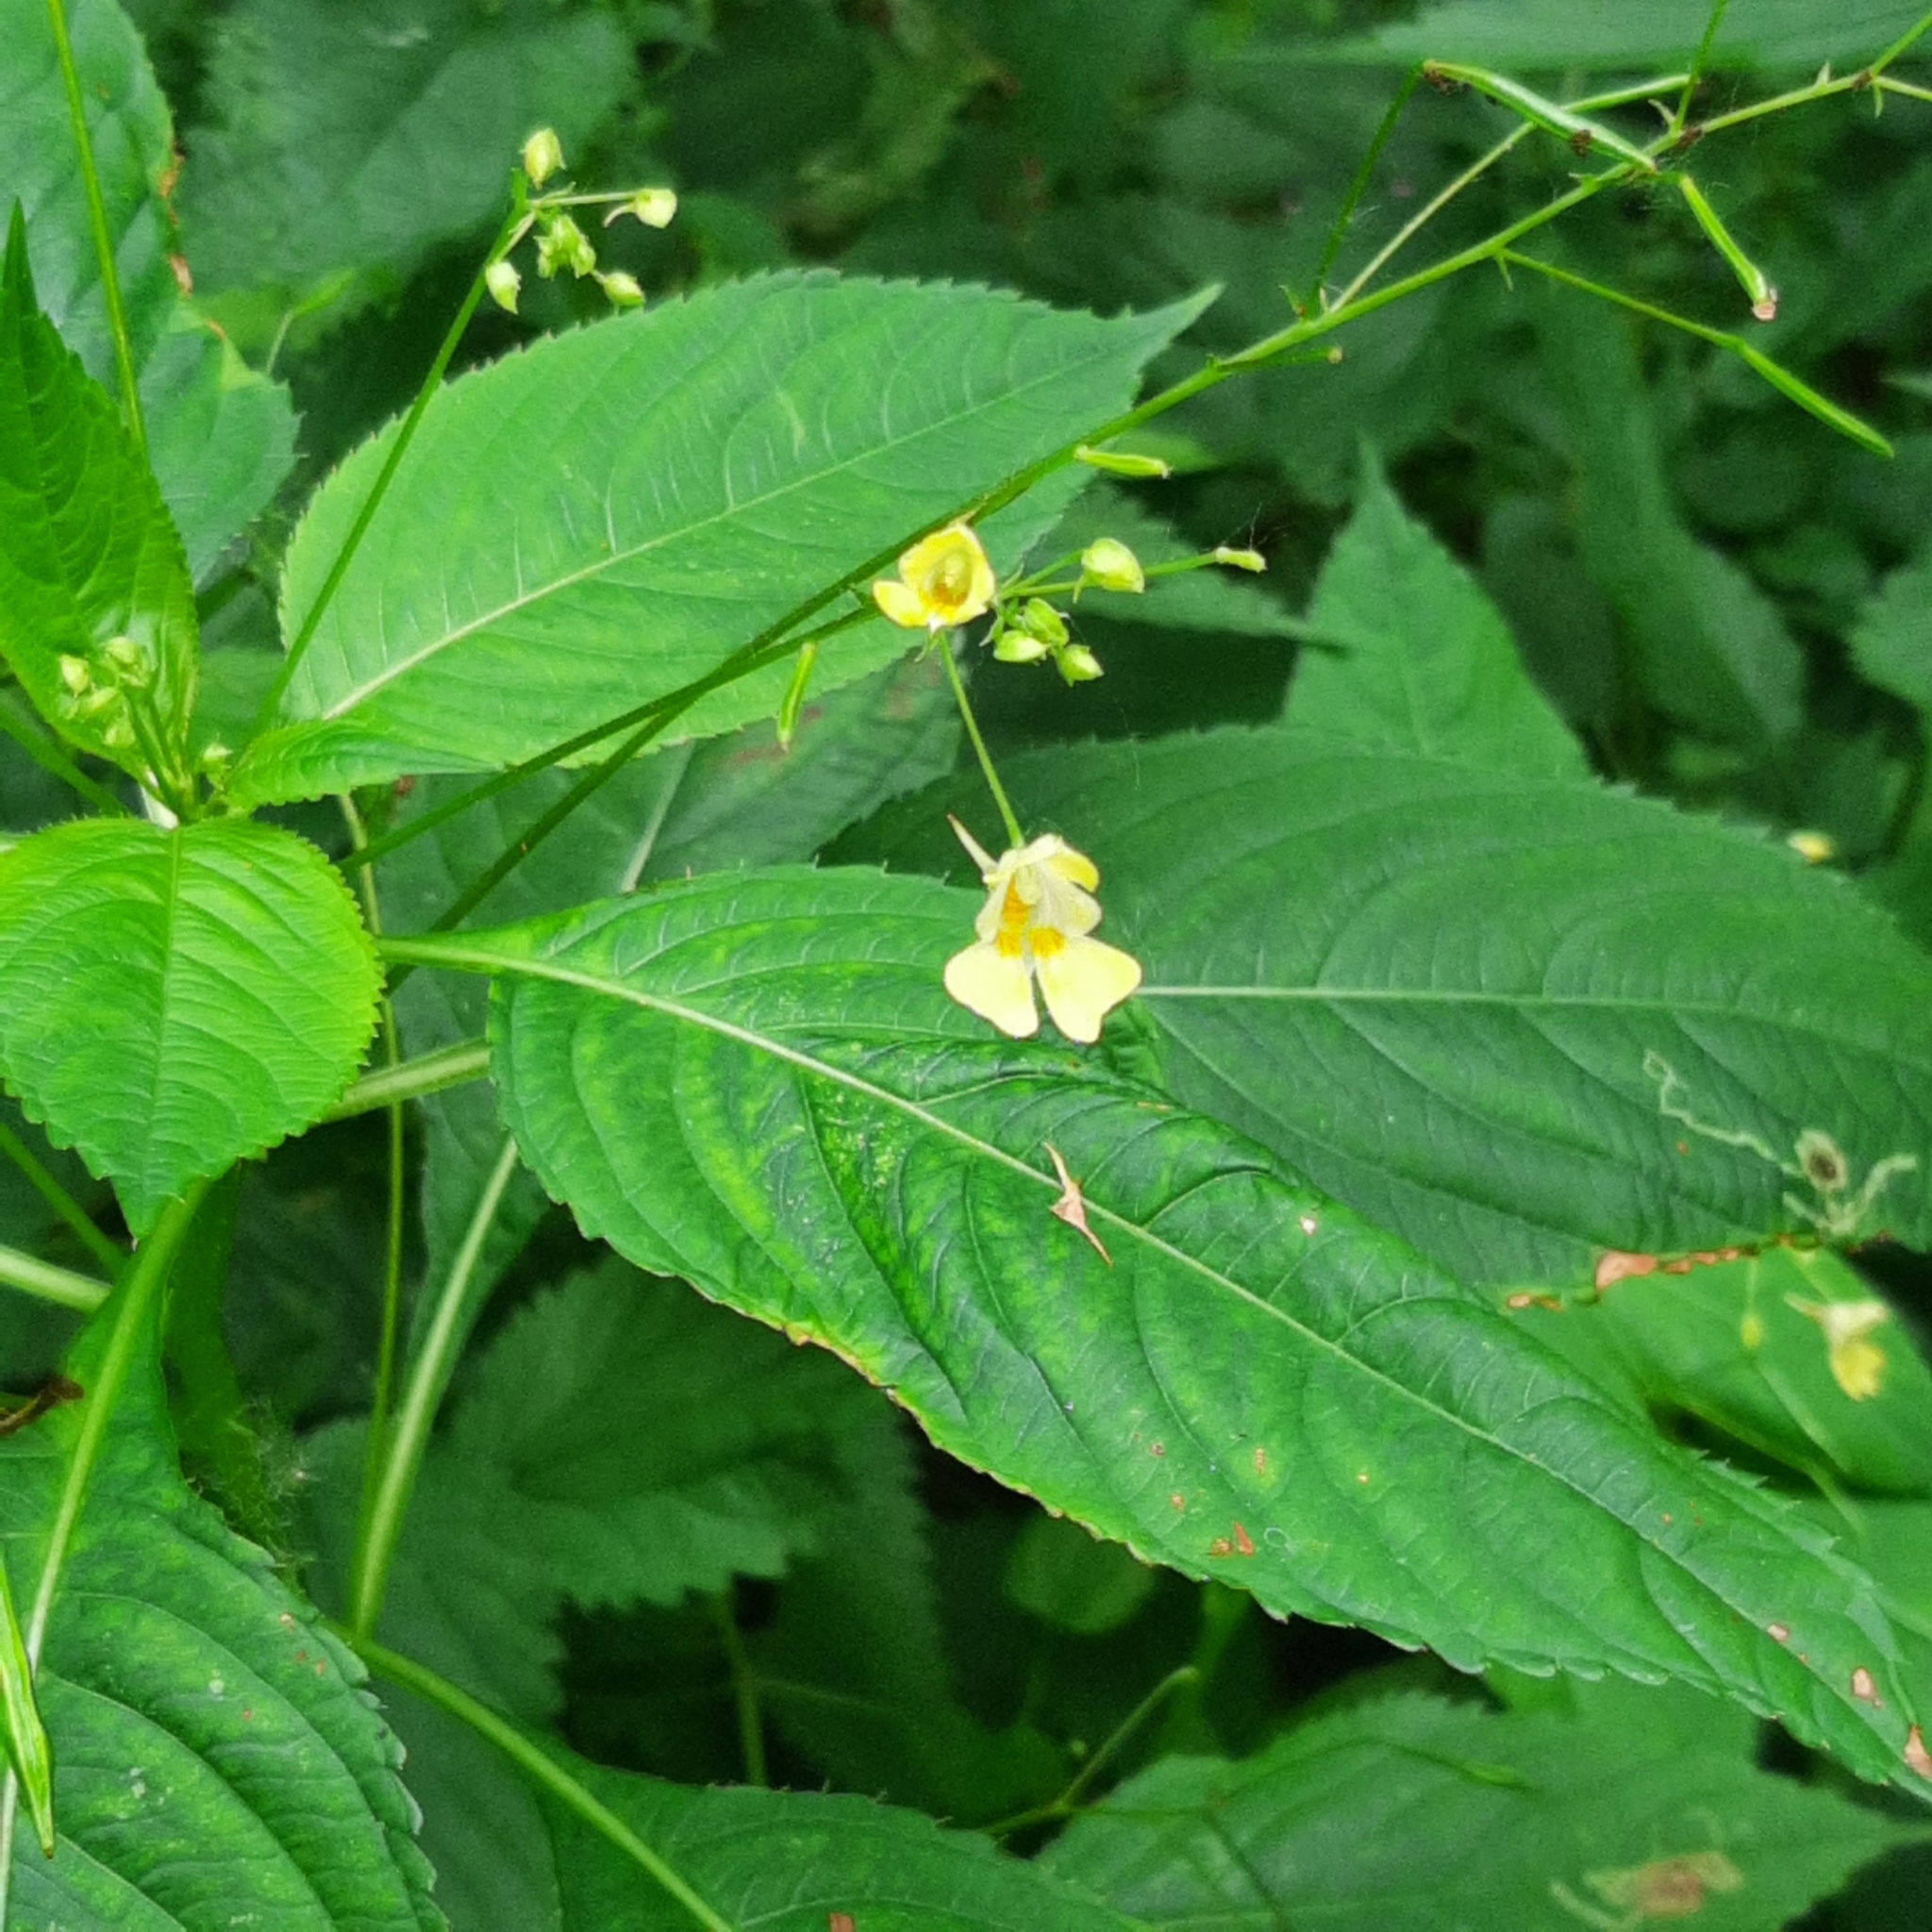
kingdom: Plantae
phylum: Tracheophyta
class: Magnoliopsida
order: Ericales
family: Balsaminaceae
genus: Impatiens
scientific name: Impatiens parviflora
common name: Small balsam
